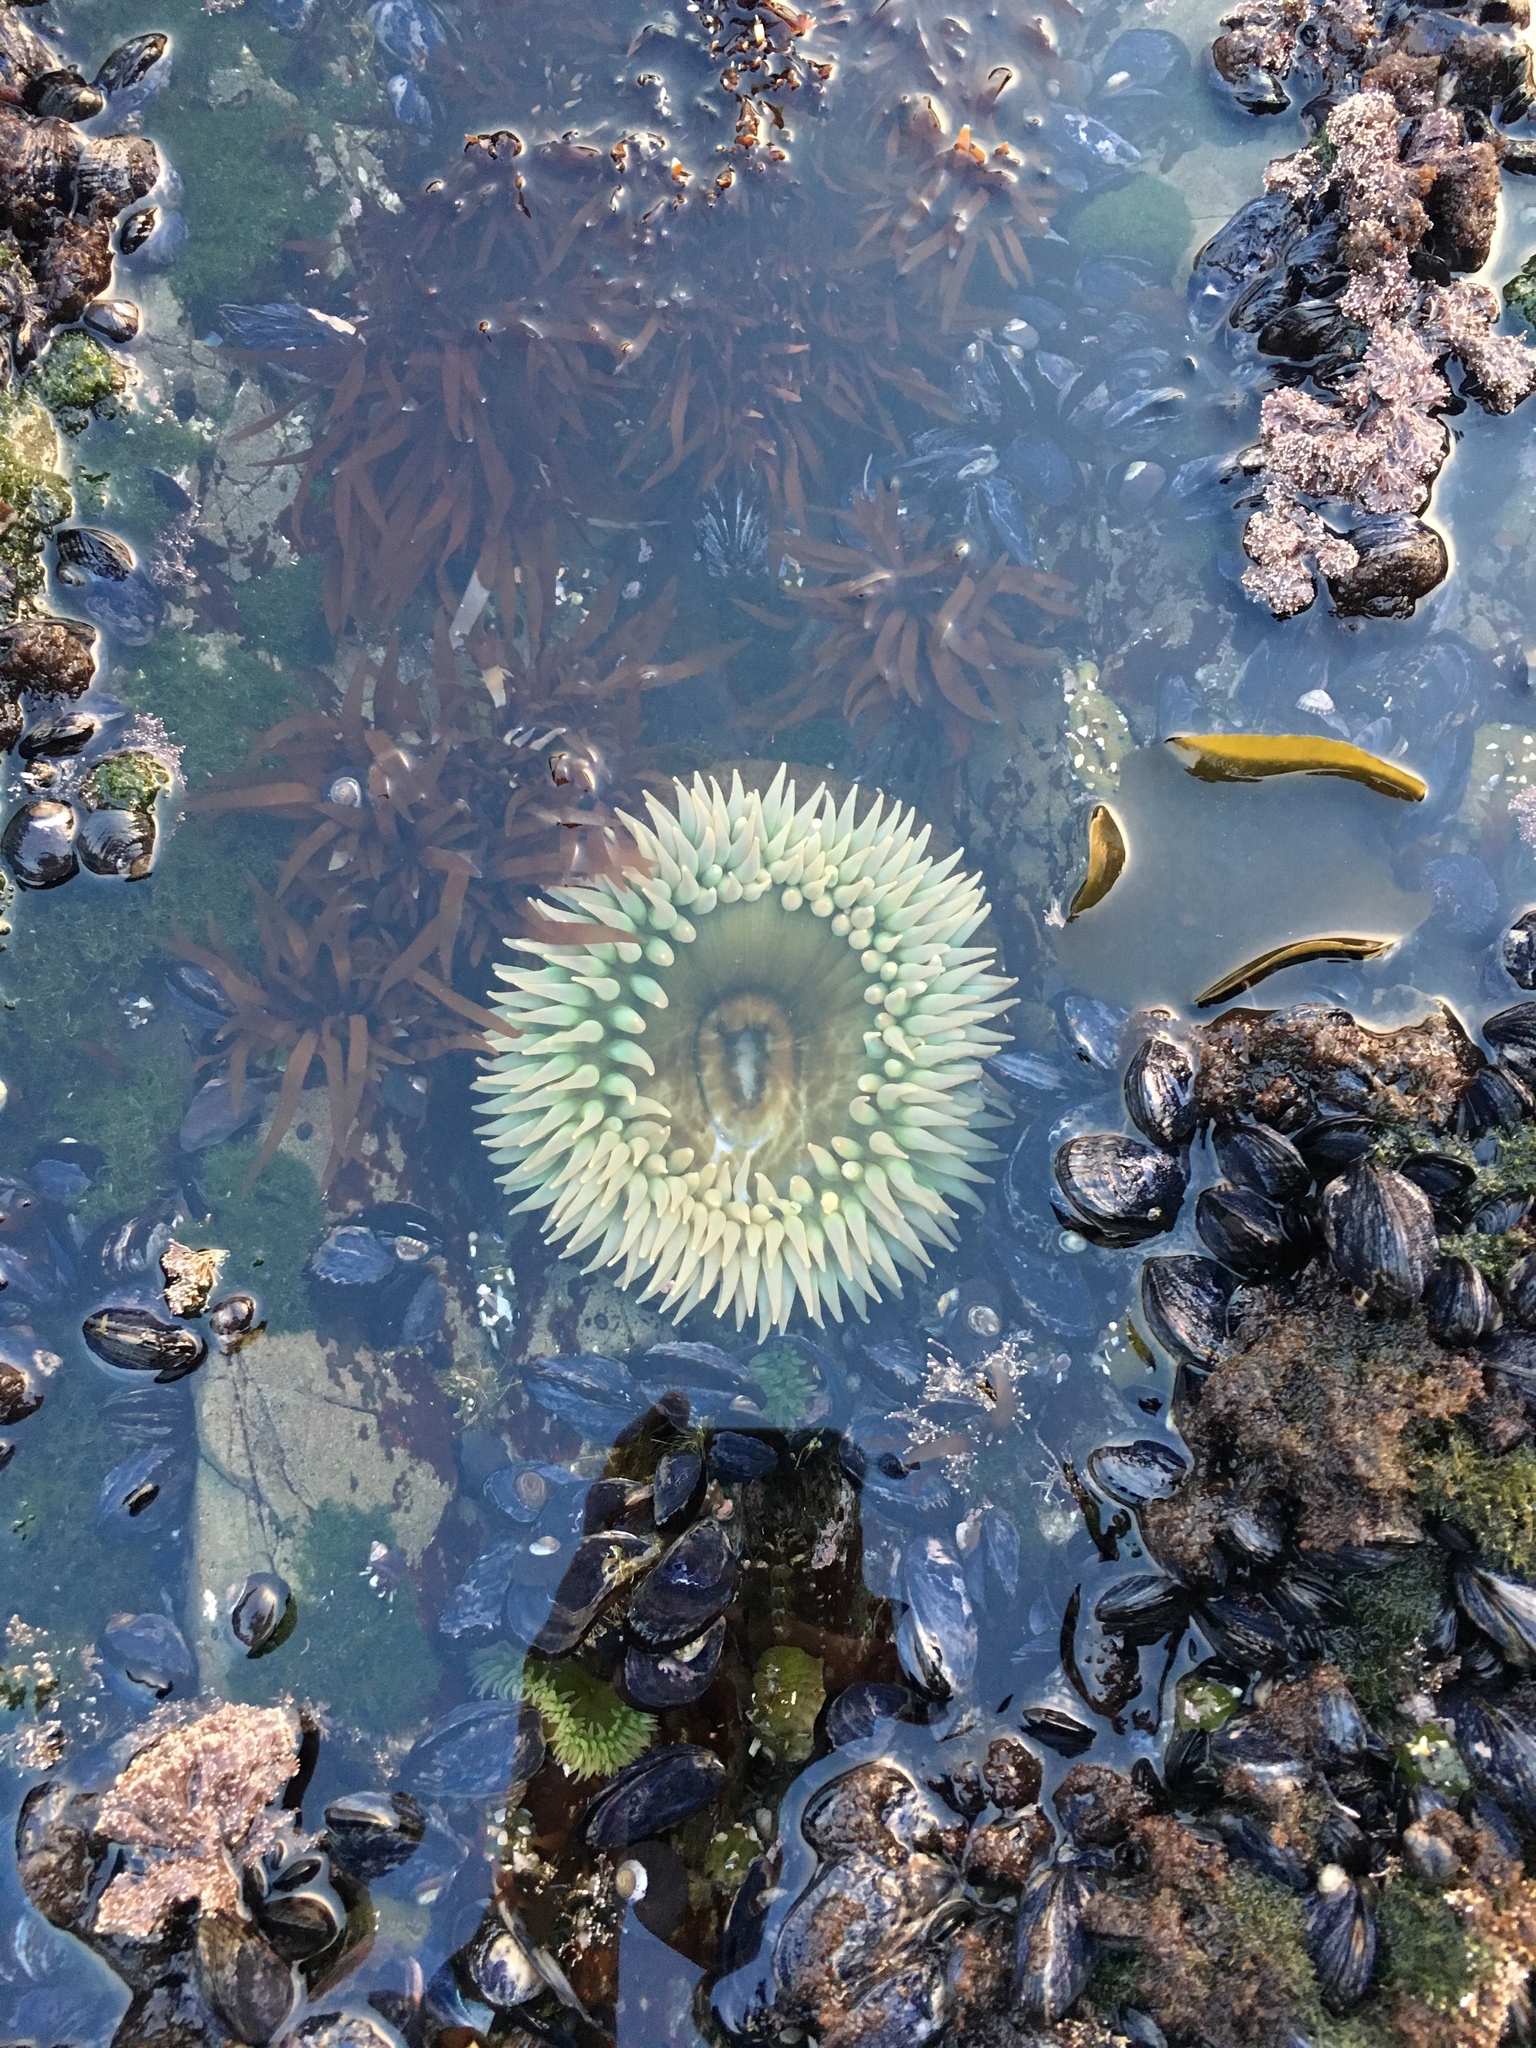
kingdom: Animalia
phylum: Cnidaria
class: Anthozoa
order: Actiniaria
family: Actiniidae
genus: Anthopleura
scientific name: Anthopleura xanthogrammica
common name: Giant green anemone
